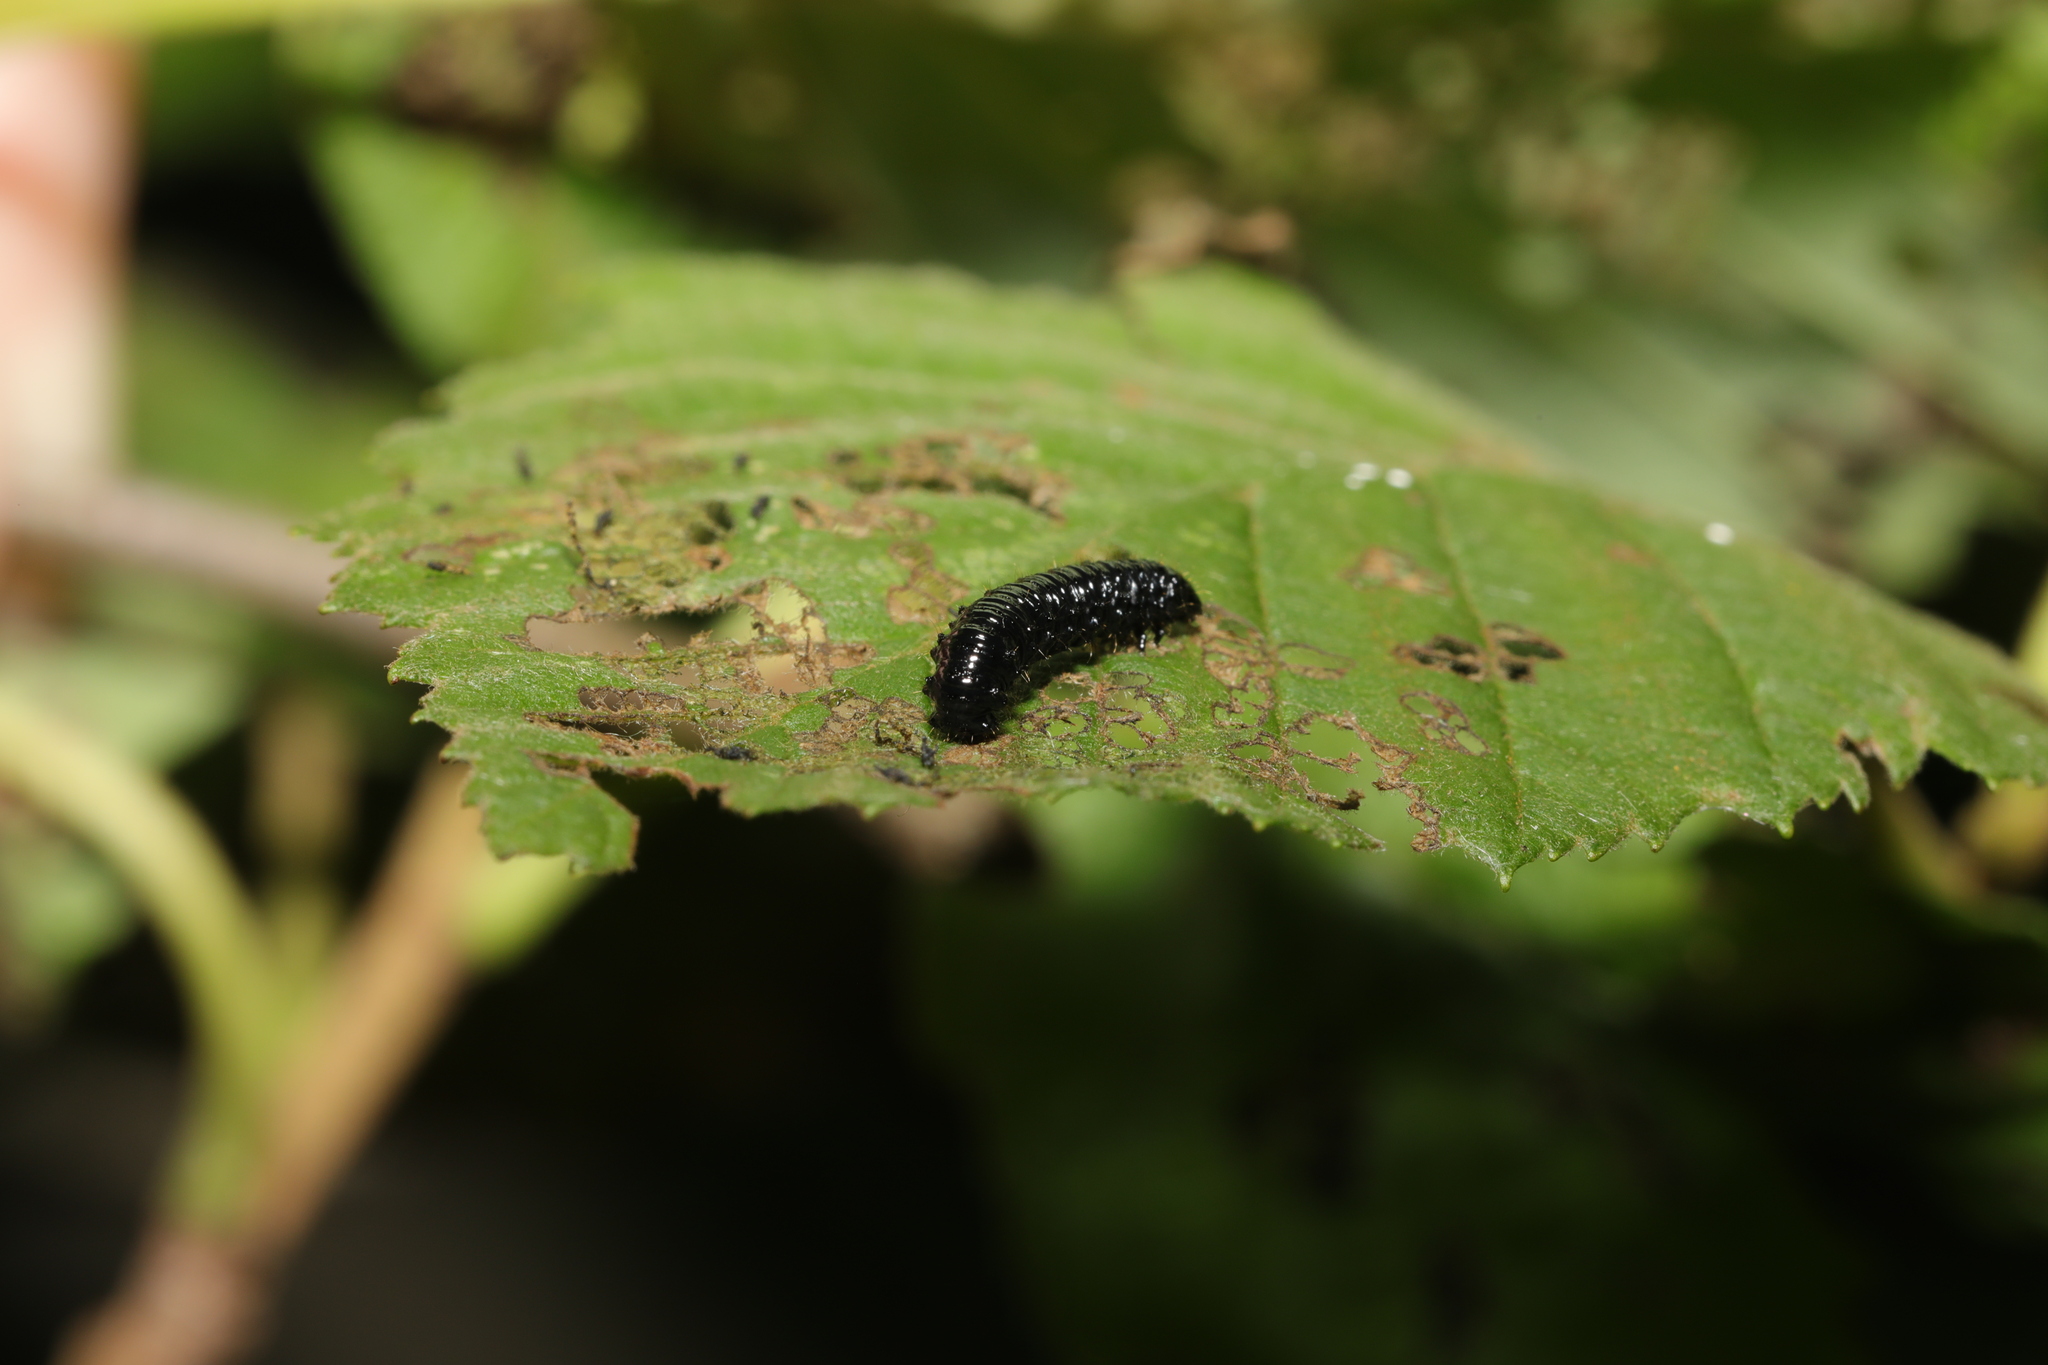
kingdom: Animalia
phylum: Arthropoda
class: Insecta
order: Coleoptera
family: Chrysomelidae
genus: Agelastica
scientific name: Agelastica alni
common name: Alder leaf beetle
